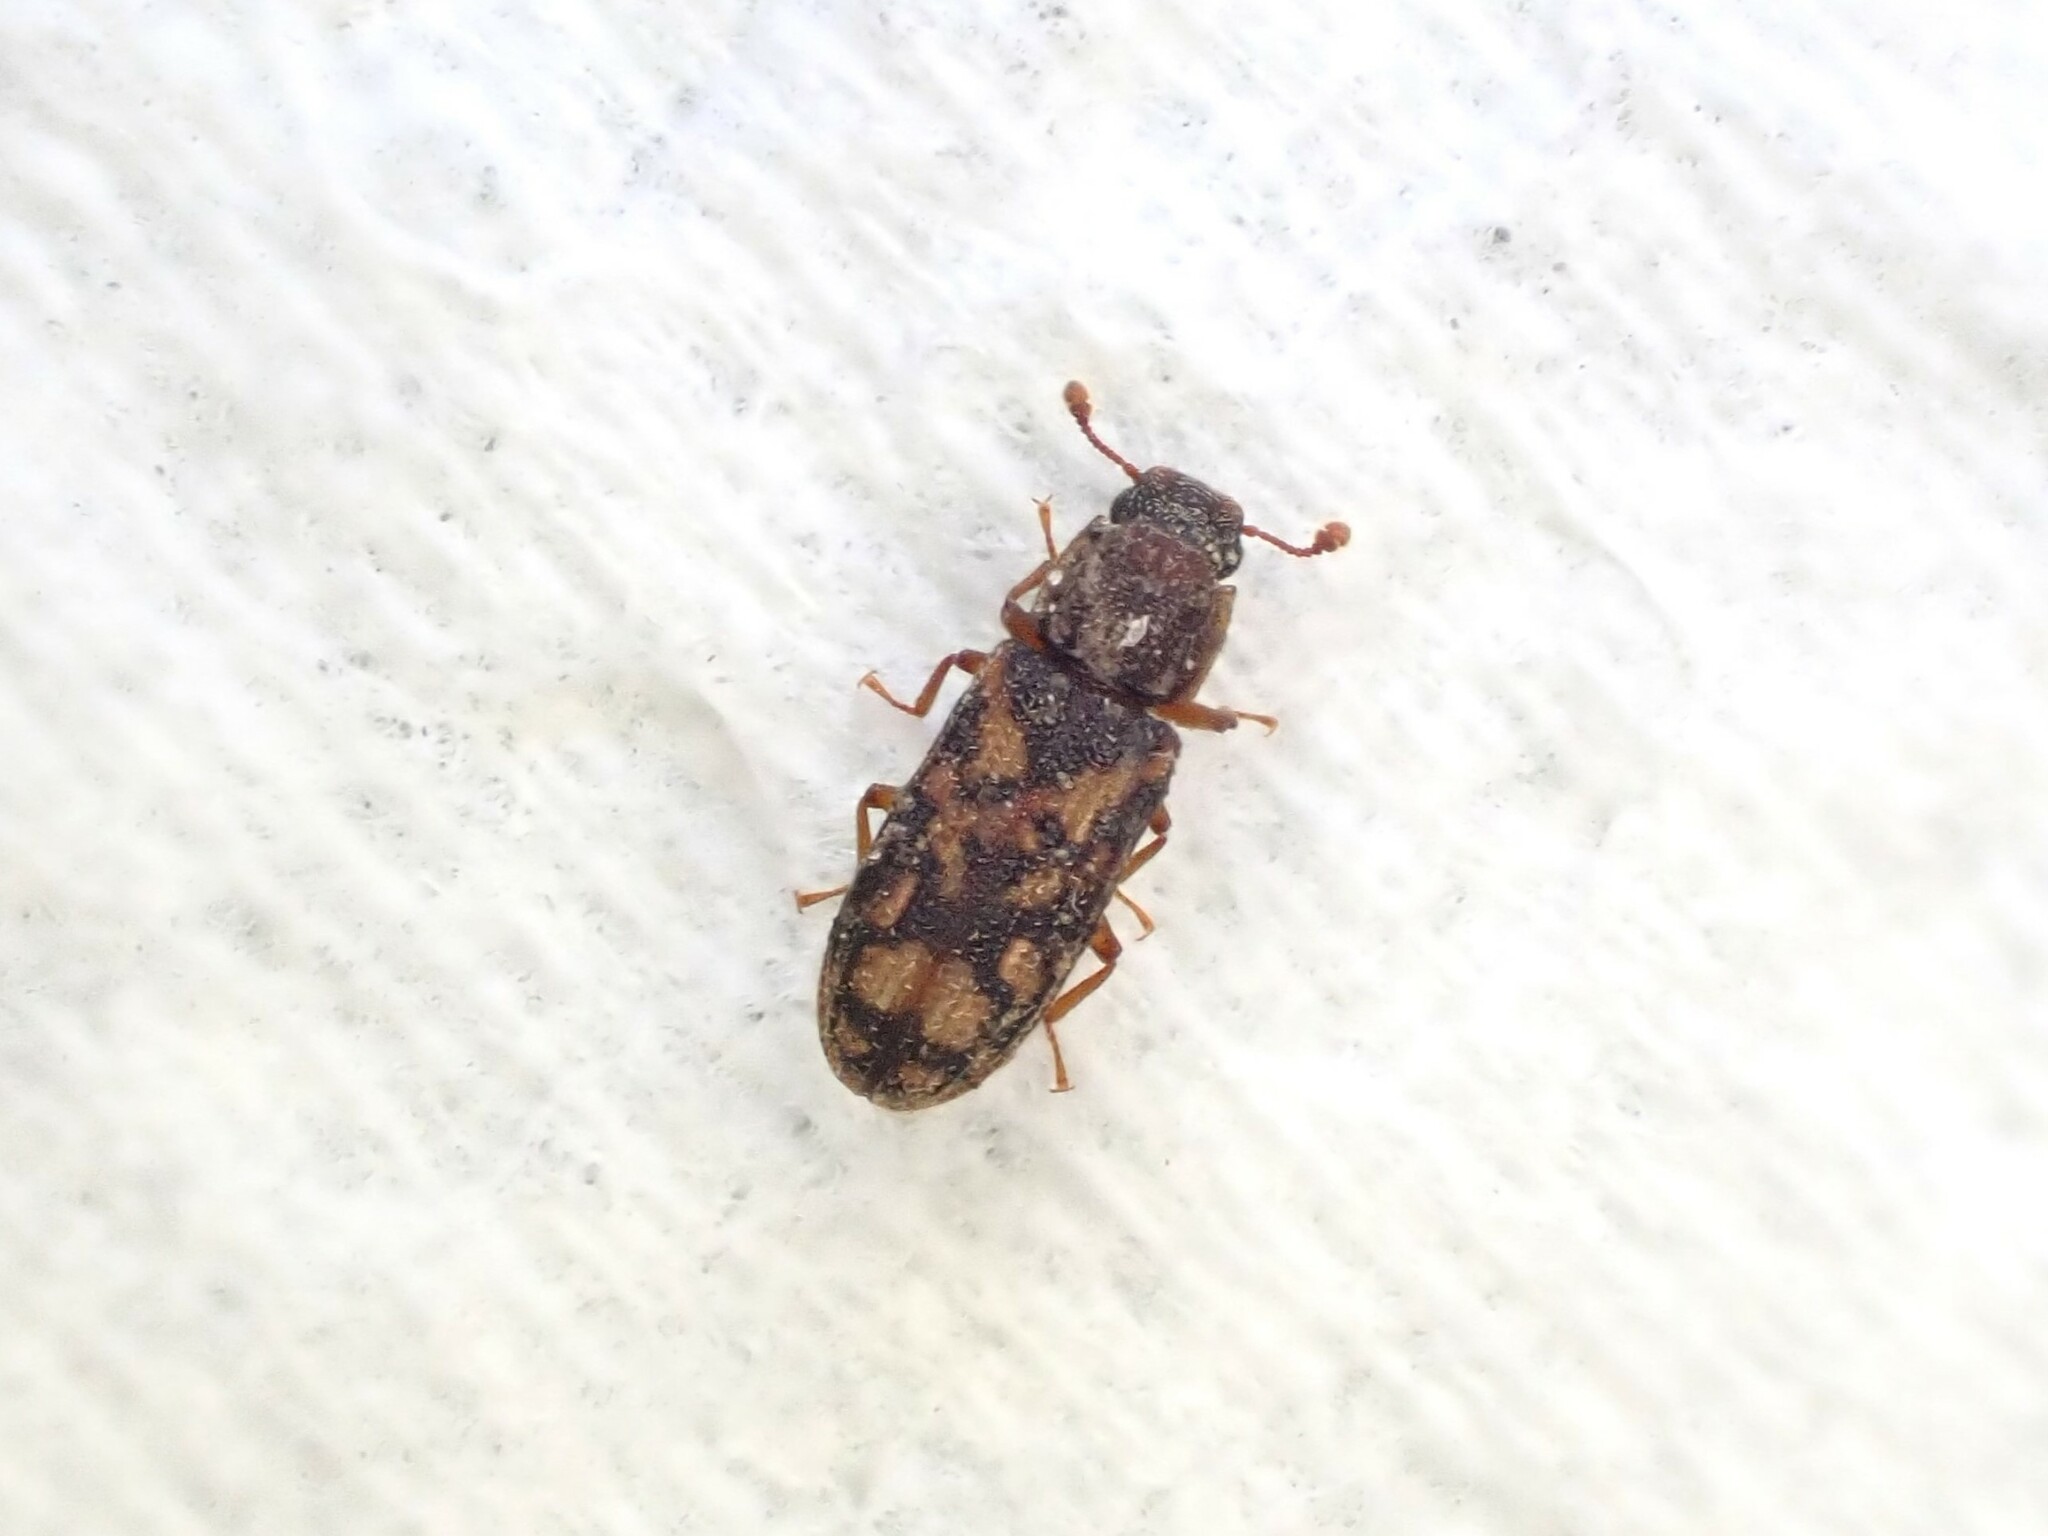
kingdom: Animalia
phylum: Arthropoda
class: Insecta
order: Coleoptera
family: Zopheridae
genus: Bitoma
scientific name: Bitoma insularis
